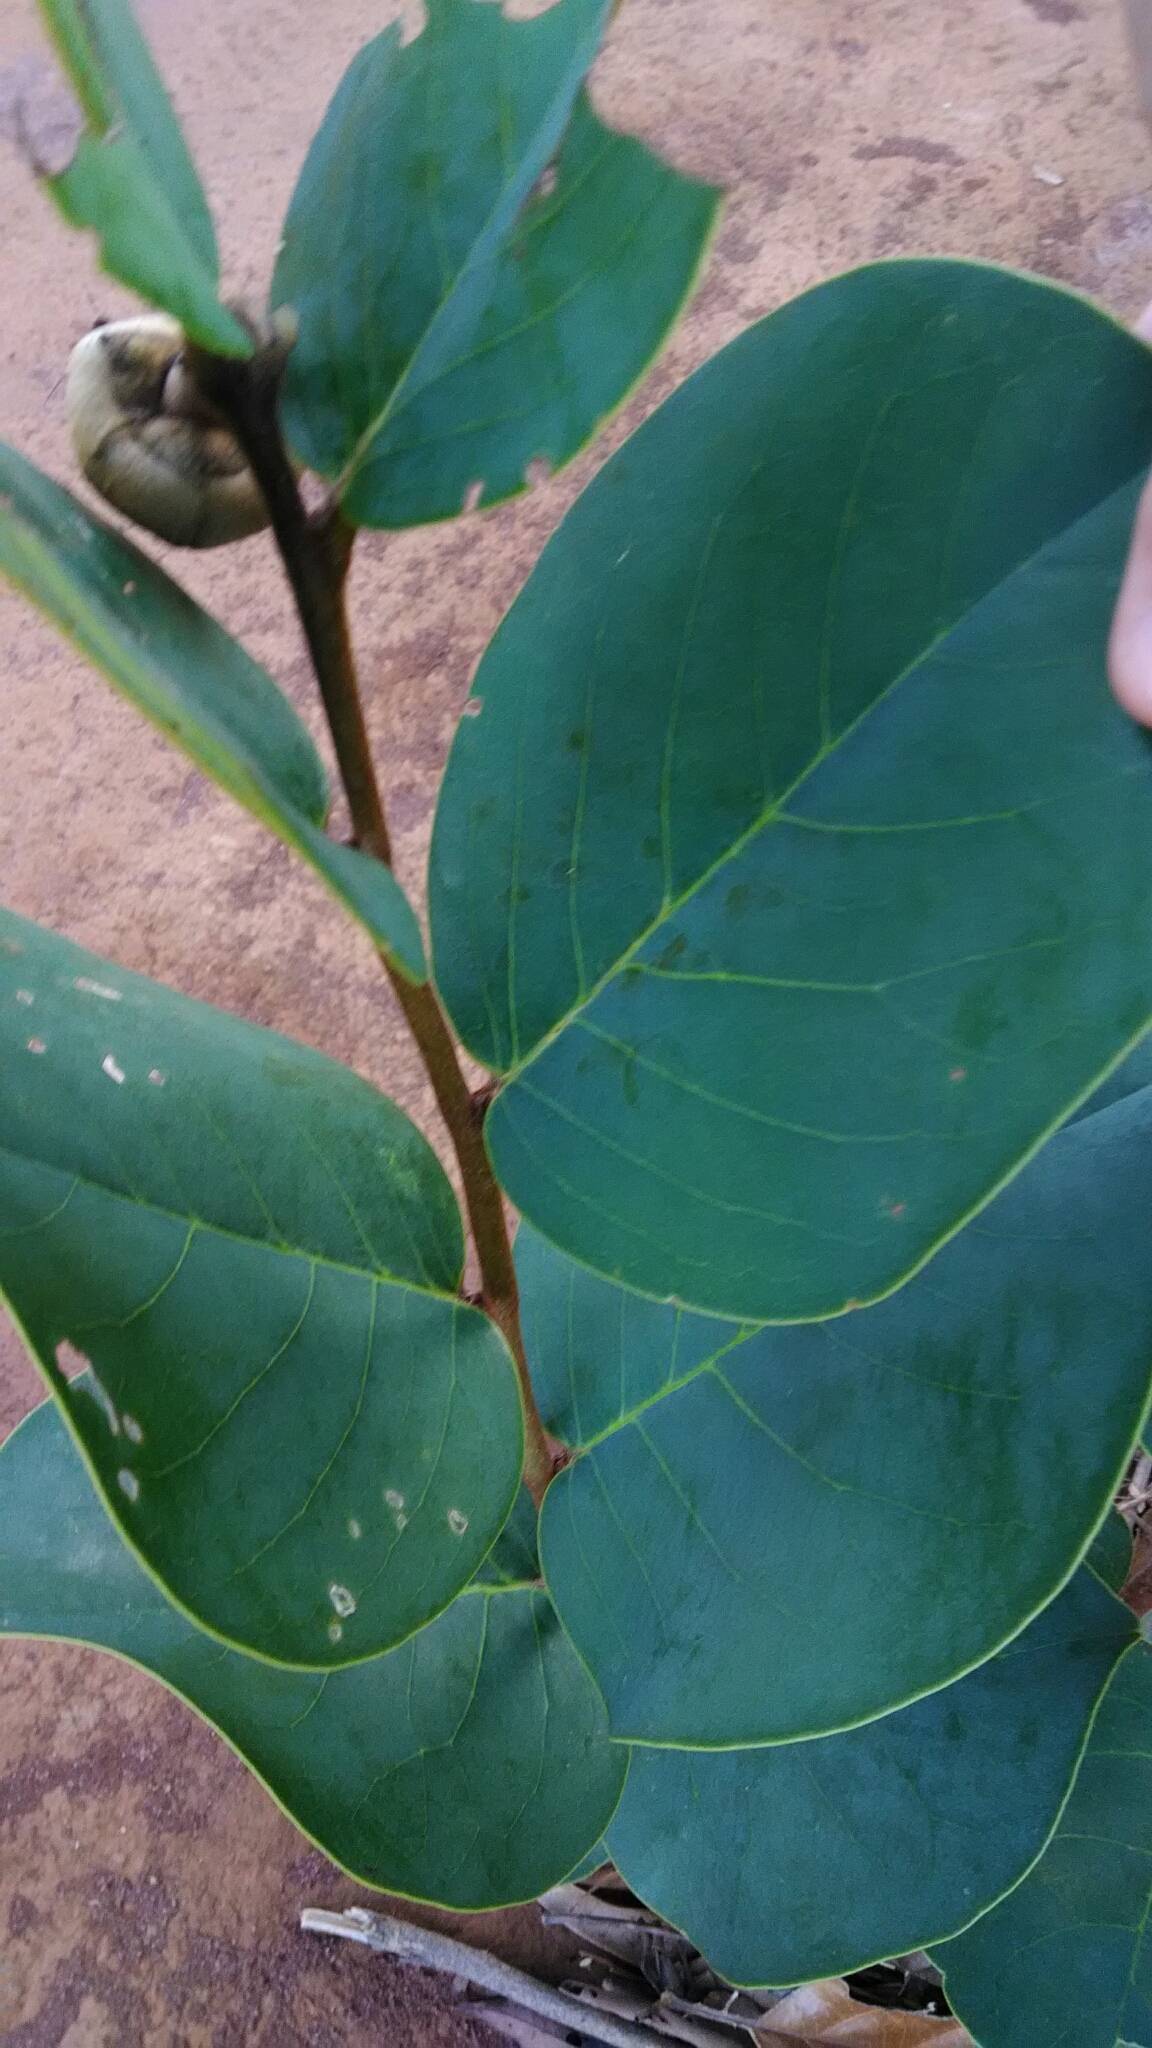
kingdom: Plantae
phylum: Tracheophyta
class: Magnoliopsida
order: Magnoliales
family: Annonaceae
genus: Annona
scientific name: Annona coriacea
